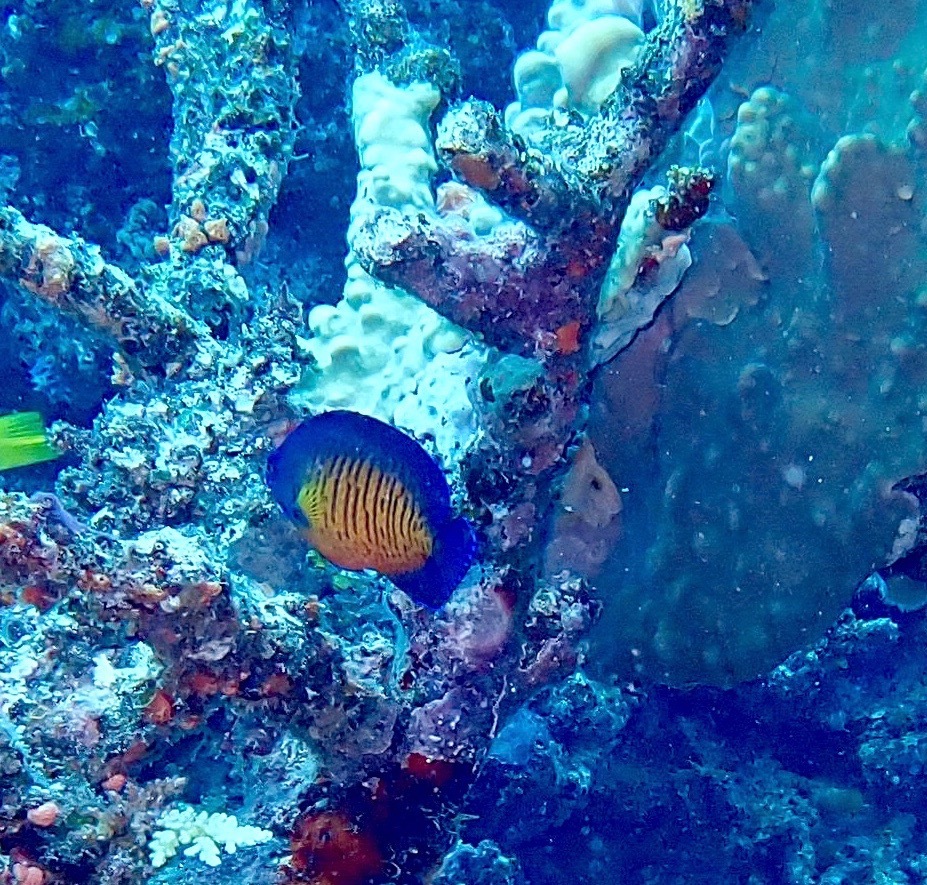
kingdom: Animalia
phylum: Chordata
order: Perciformes
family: Pomacanthidae
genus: Centropyge
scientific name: Centropyge bispinosa
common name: Coral beauty
